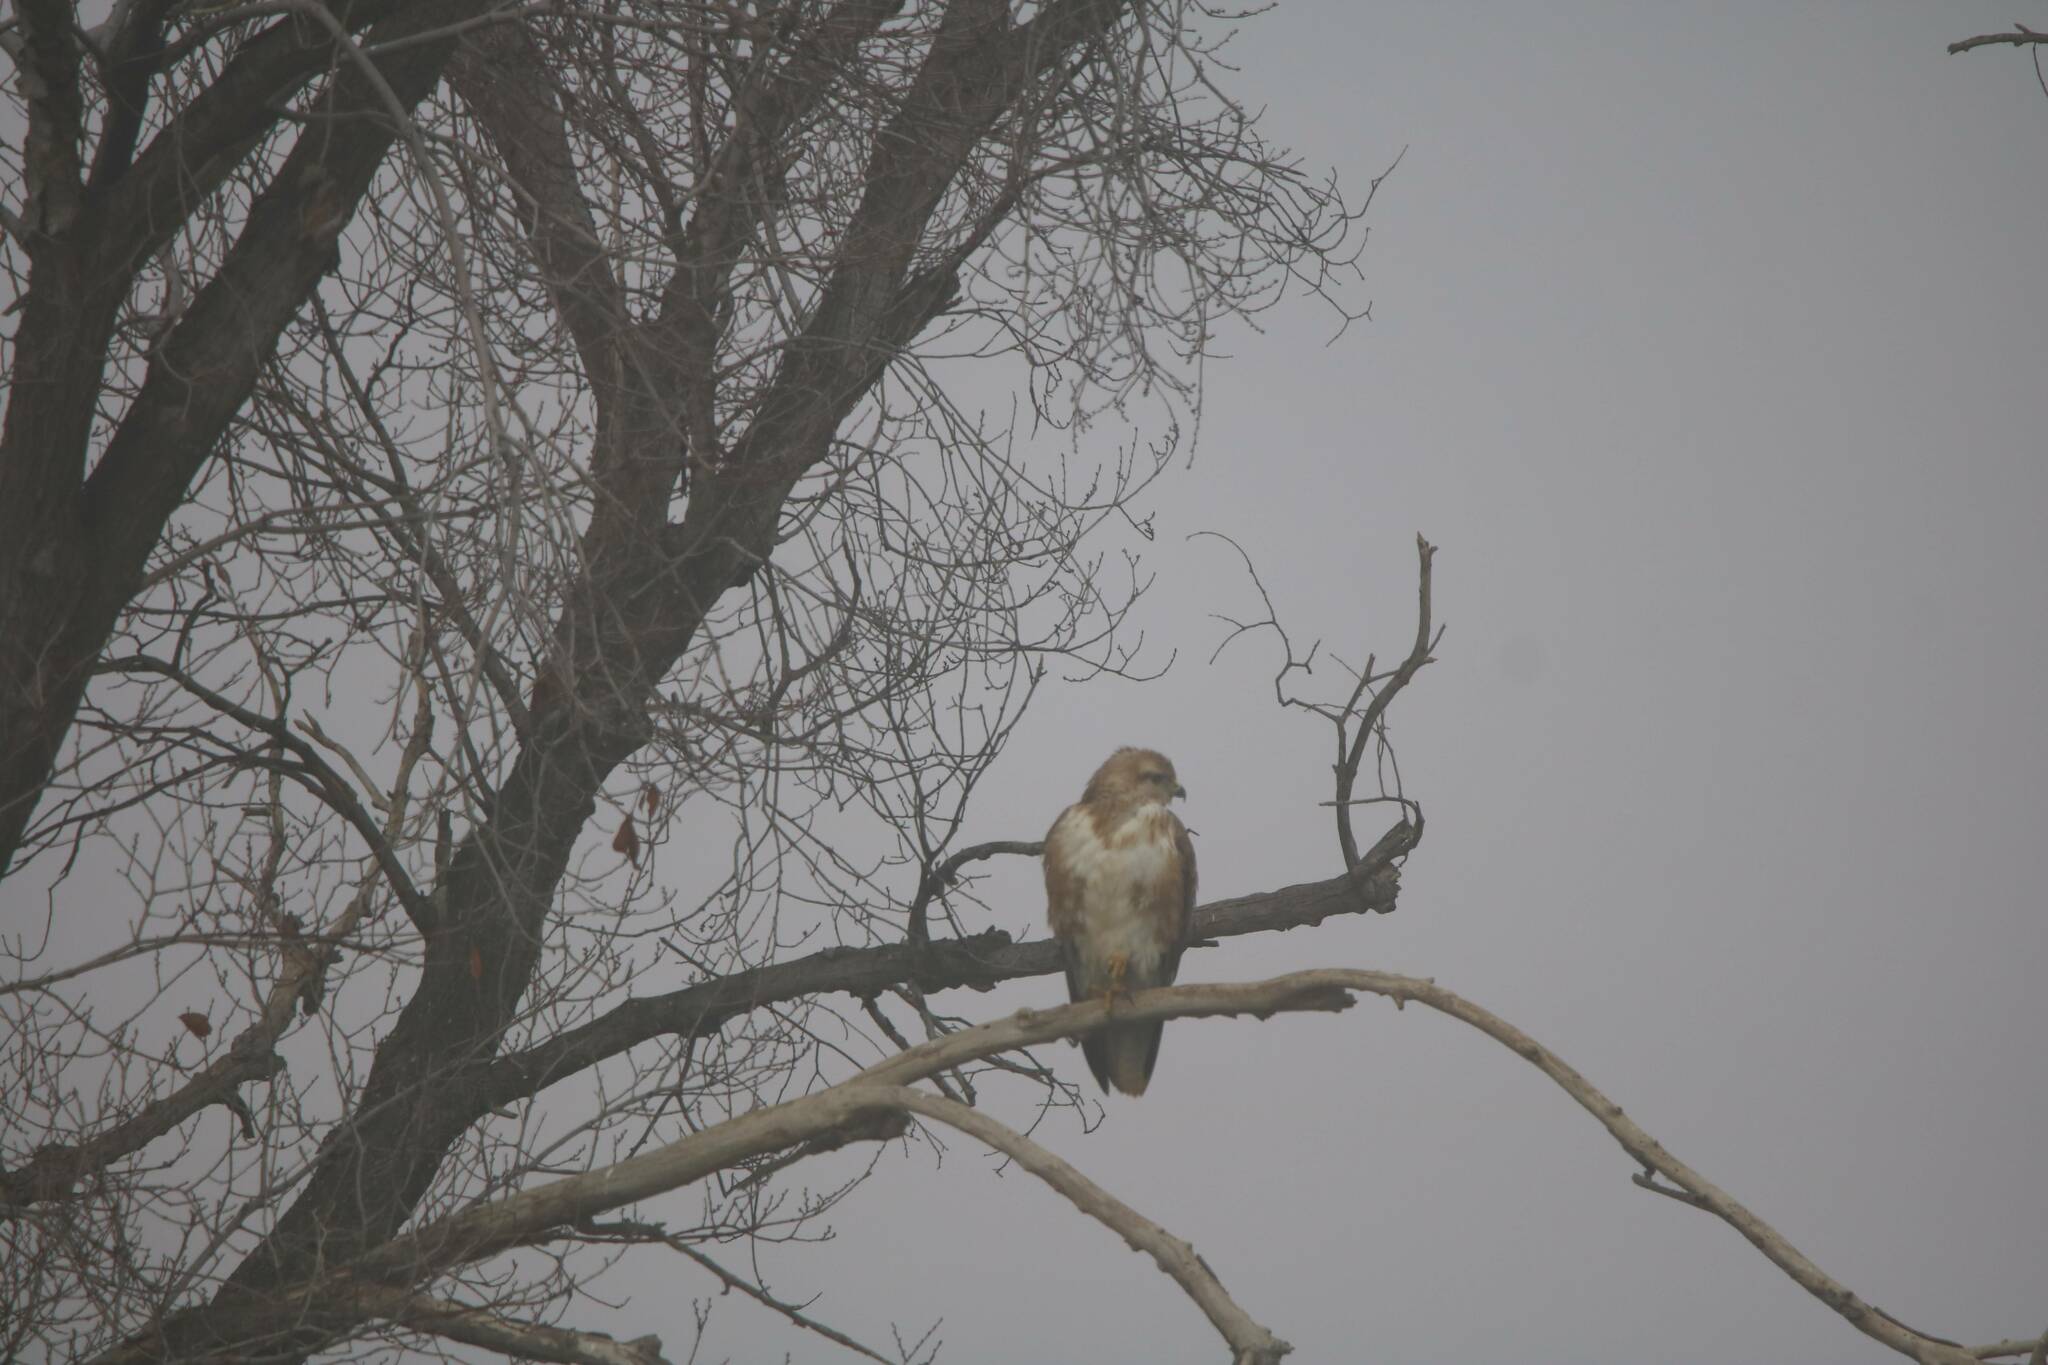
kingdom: Animalia
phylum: Chordata
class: Aves
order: Accipitriformes
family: Accipitridae
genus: Buteo
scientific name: Buteo rufinus
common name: Long-legged buzzard
